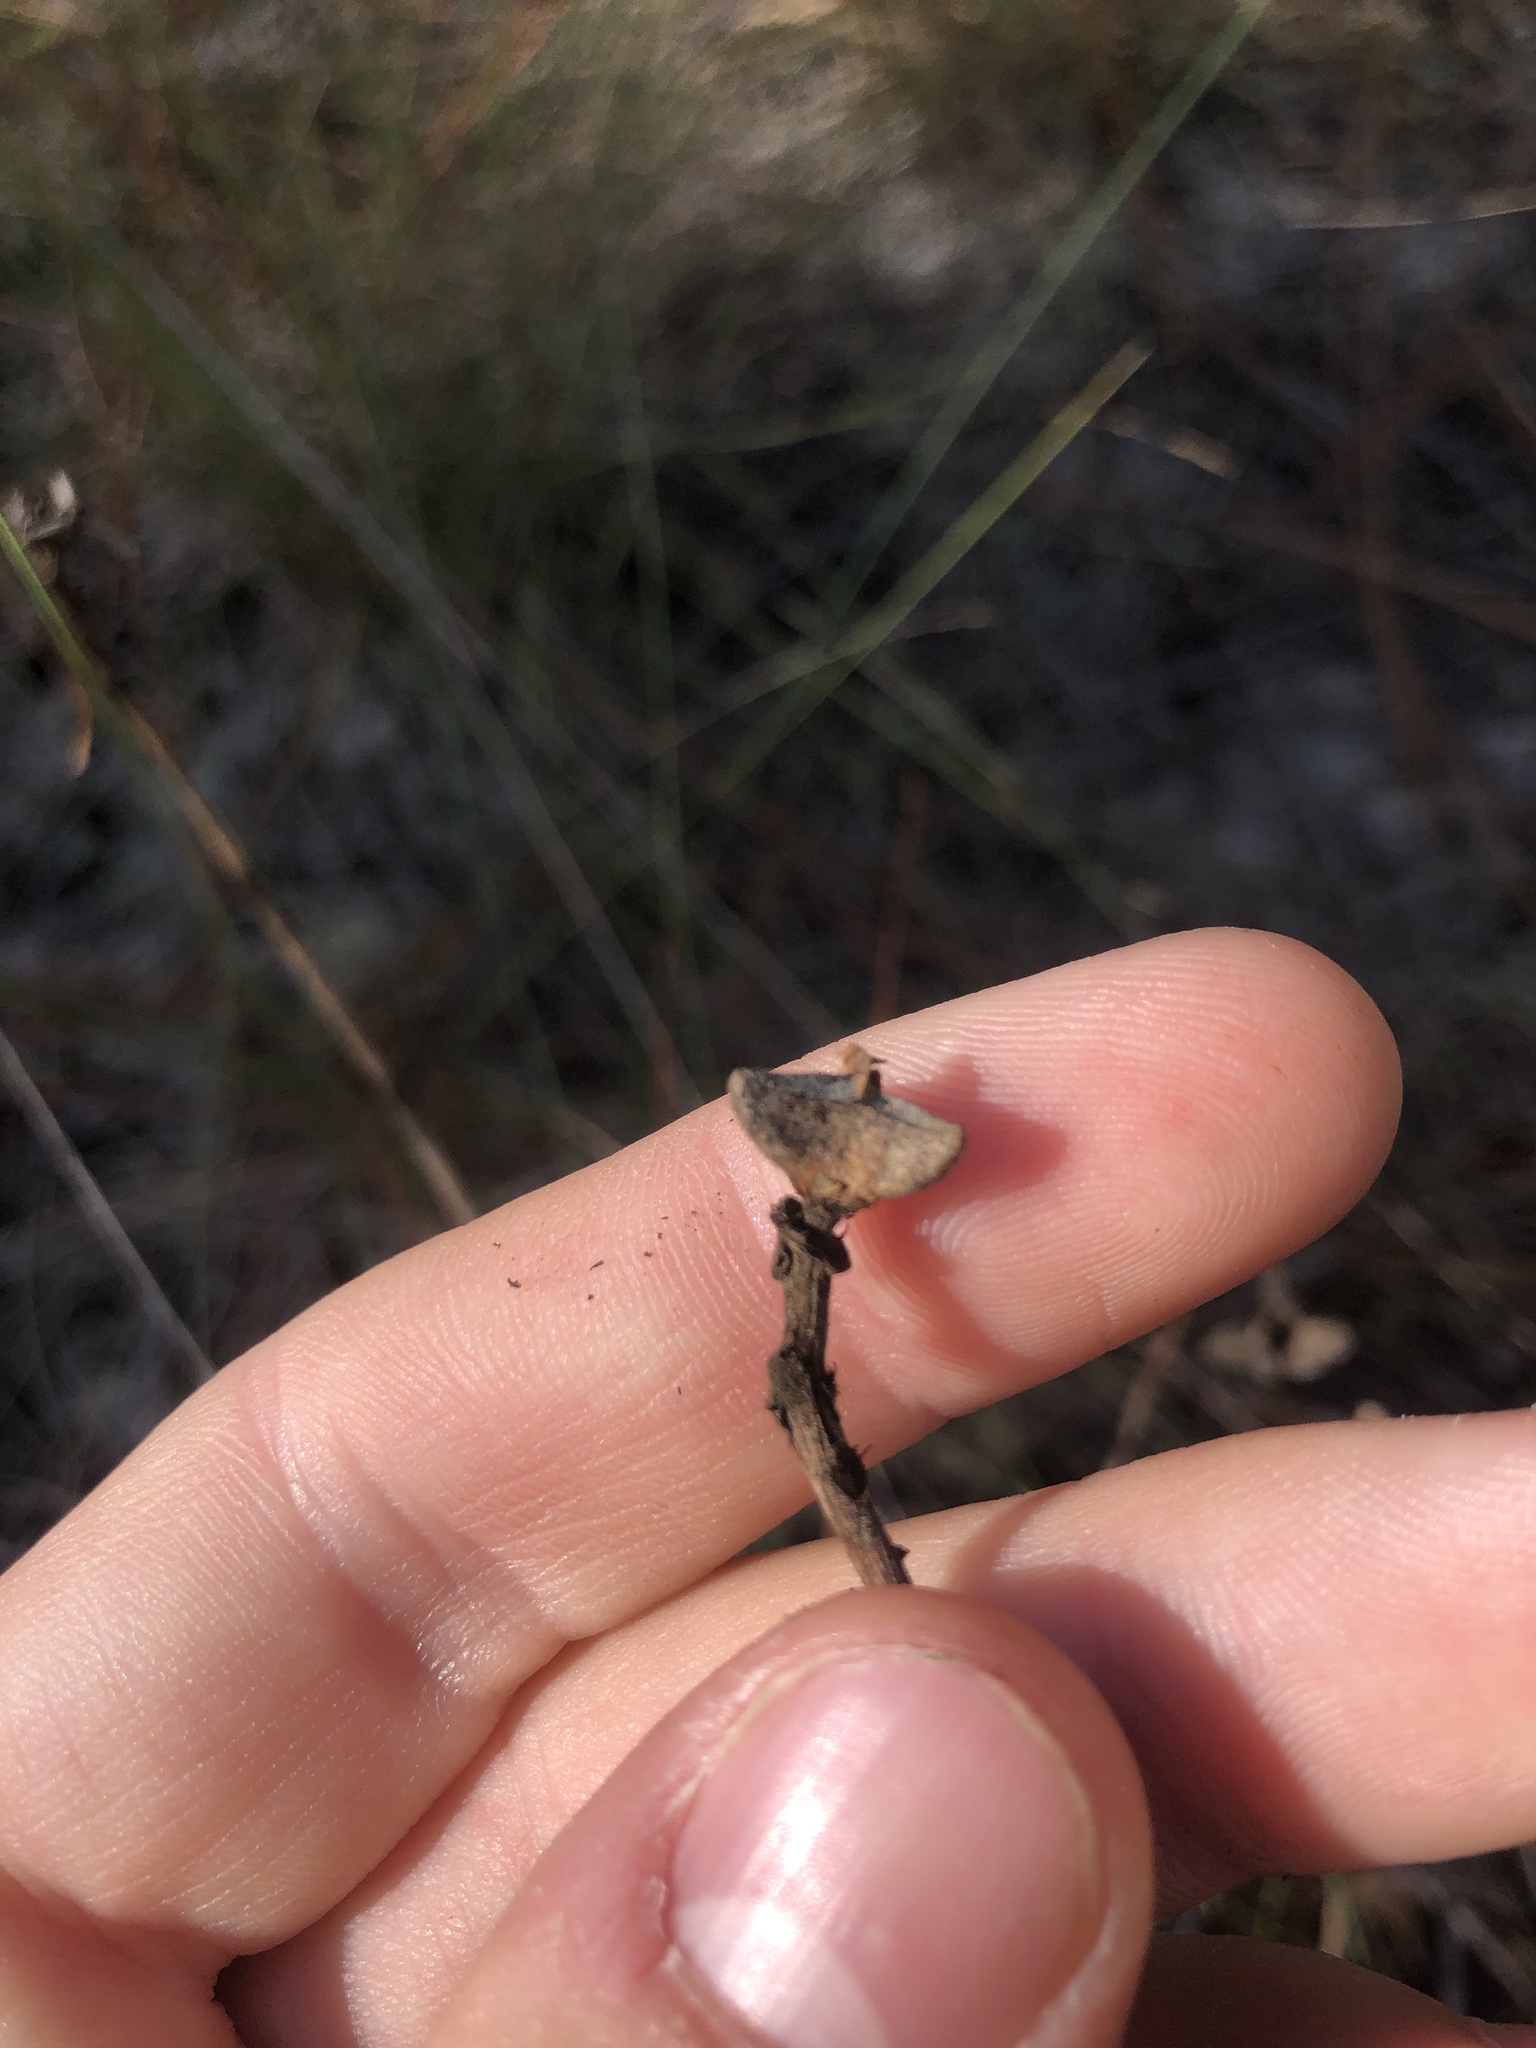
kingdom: Plantae
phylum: Tracheophyta
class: Magnoliopsida
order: Malpighiales
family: Euphorbiaceae
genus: Stillingia
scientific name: Stillingia sylvatica
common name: Queen's-delight
